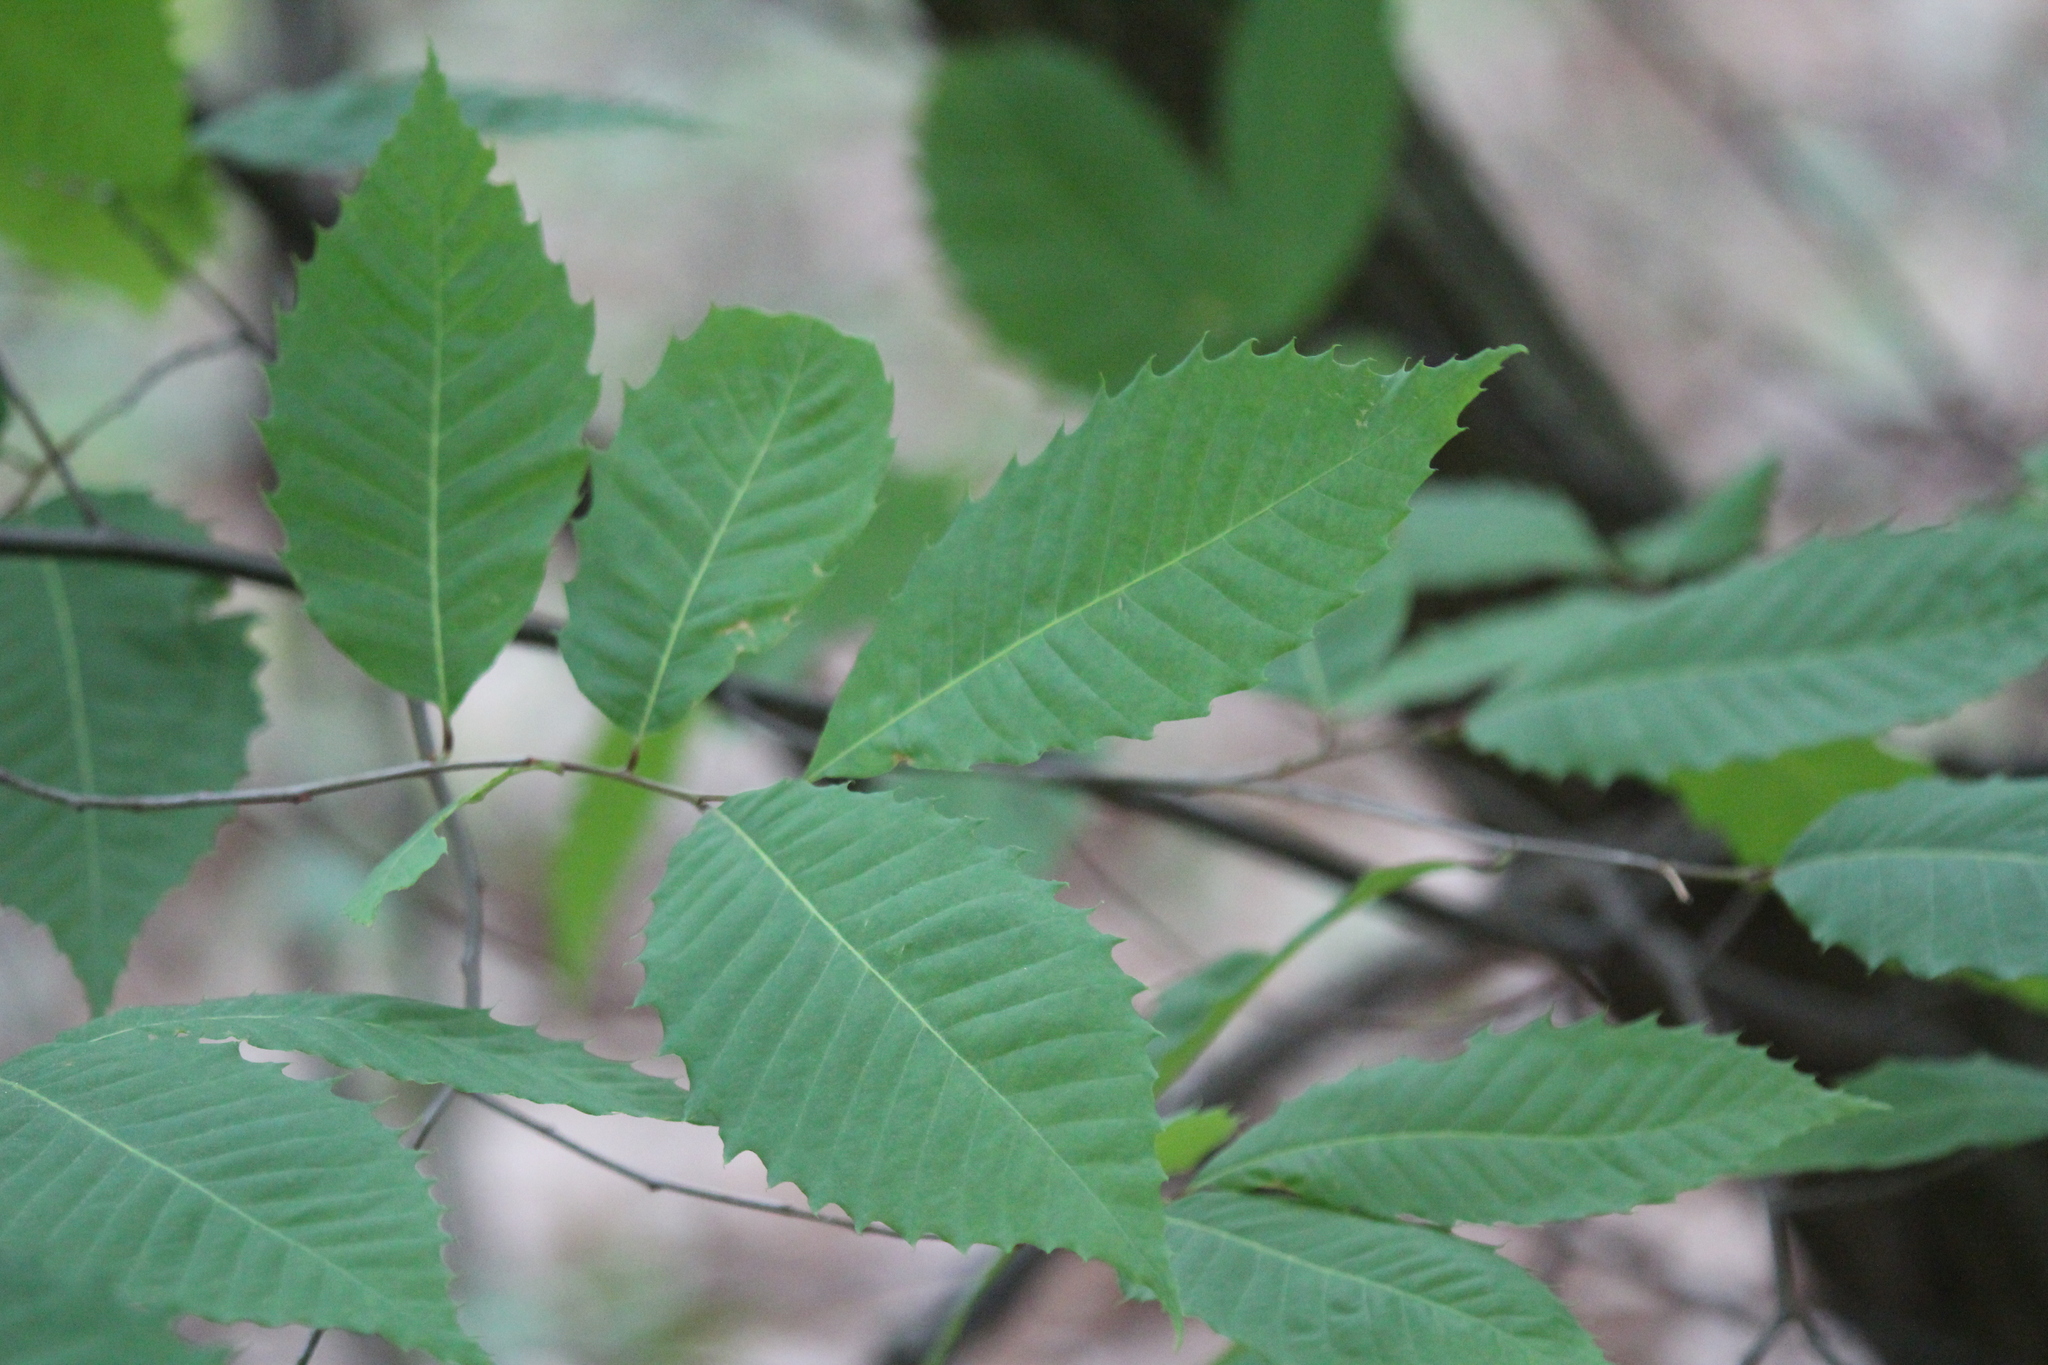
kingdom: Plantae
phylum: Tracheophyta
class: Magnoliopsida
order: Fagales
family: Fagaceae
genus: Castanea
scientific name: Castanea dentata
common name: American chestnut
